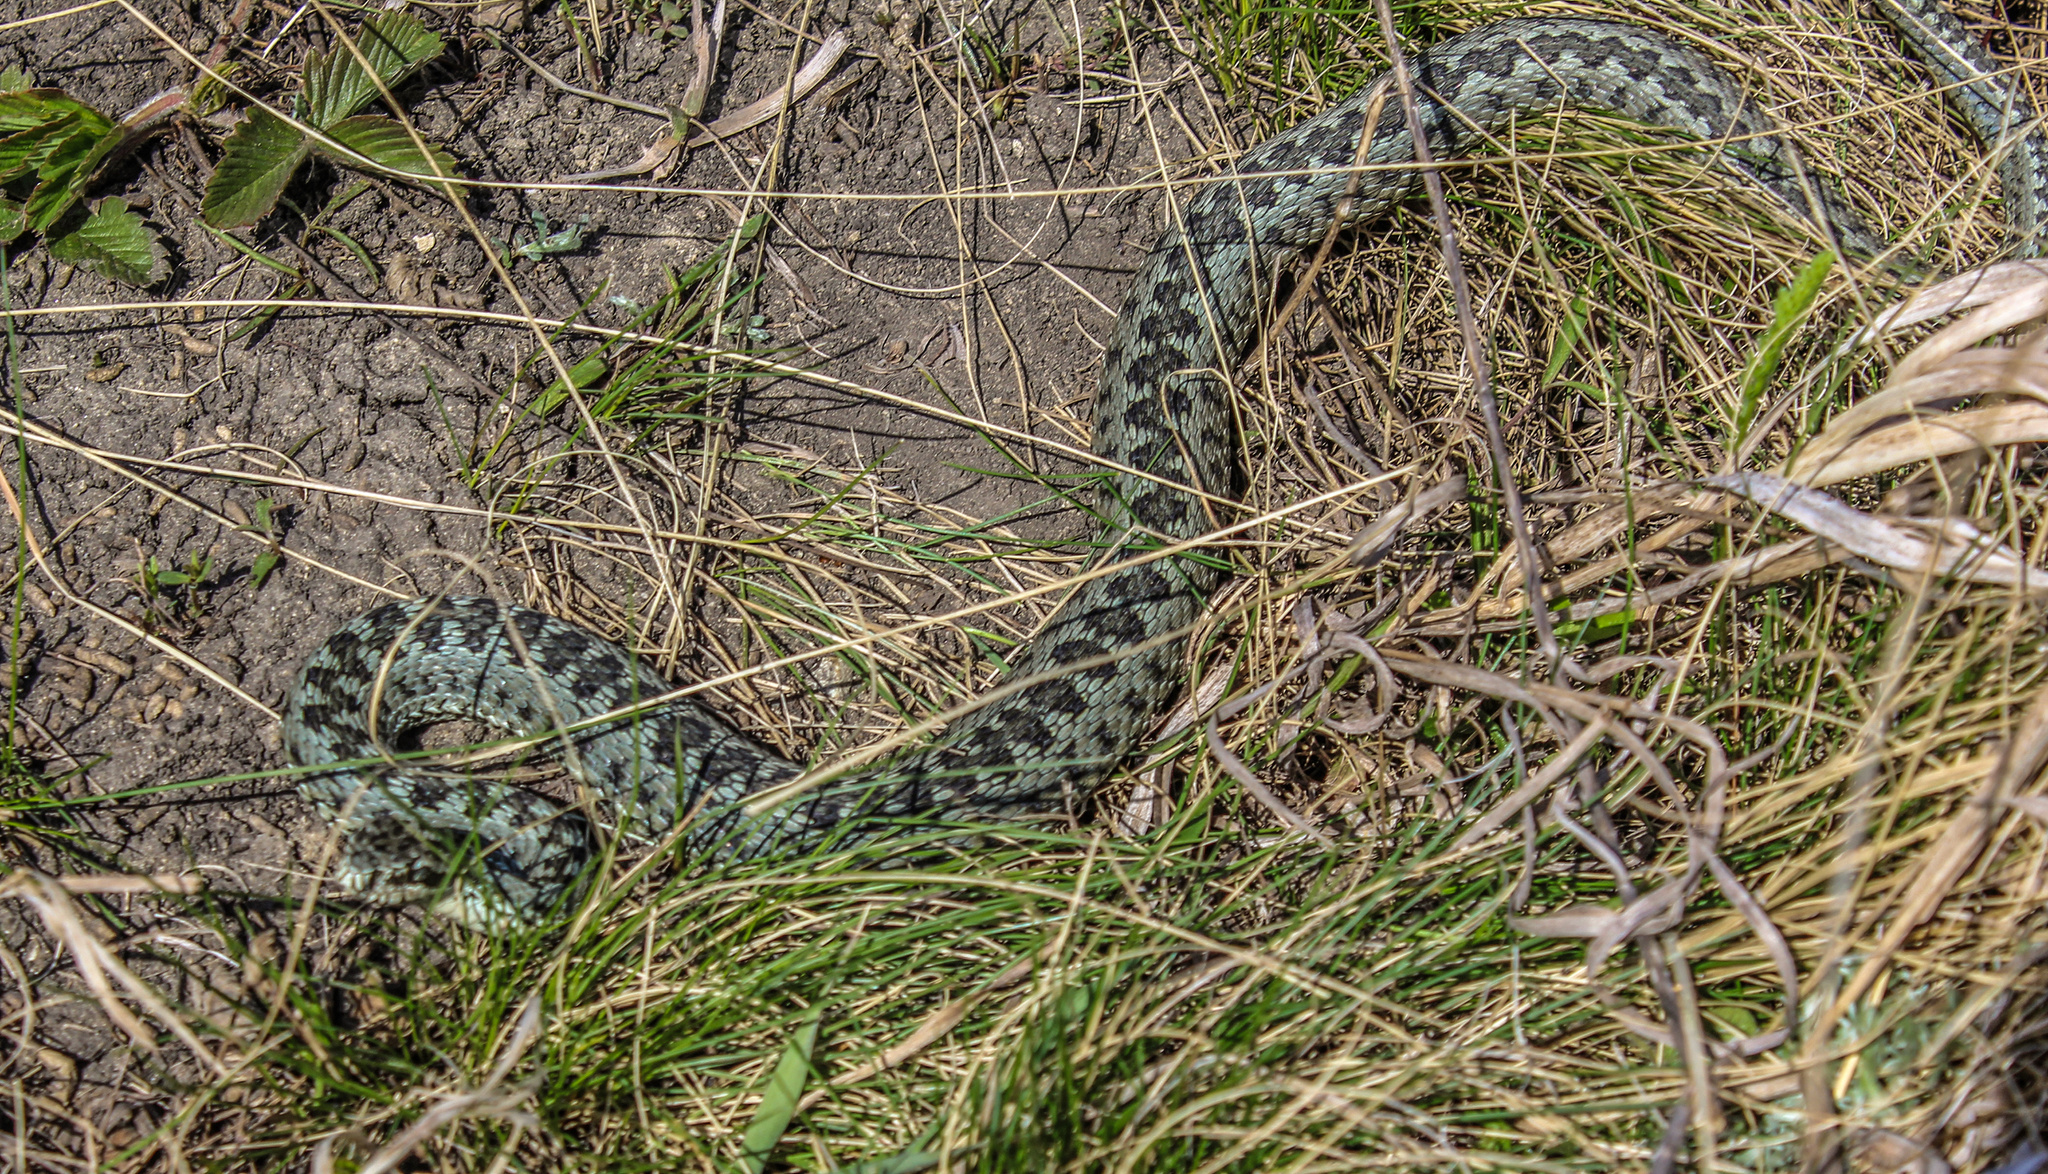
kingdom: Animalia
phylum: Chordata
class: Squamata
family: Viperidae
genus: Vipera
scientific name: Vipera renardi
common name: Eastern steppe viper
